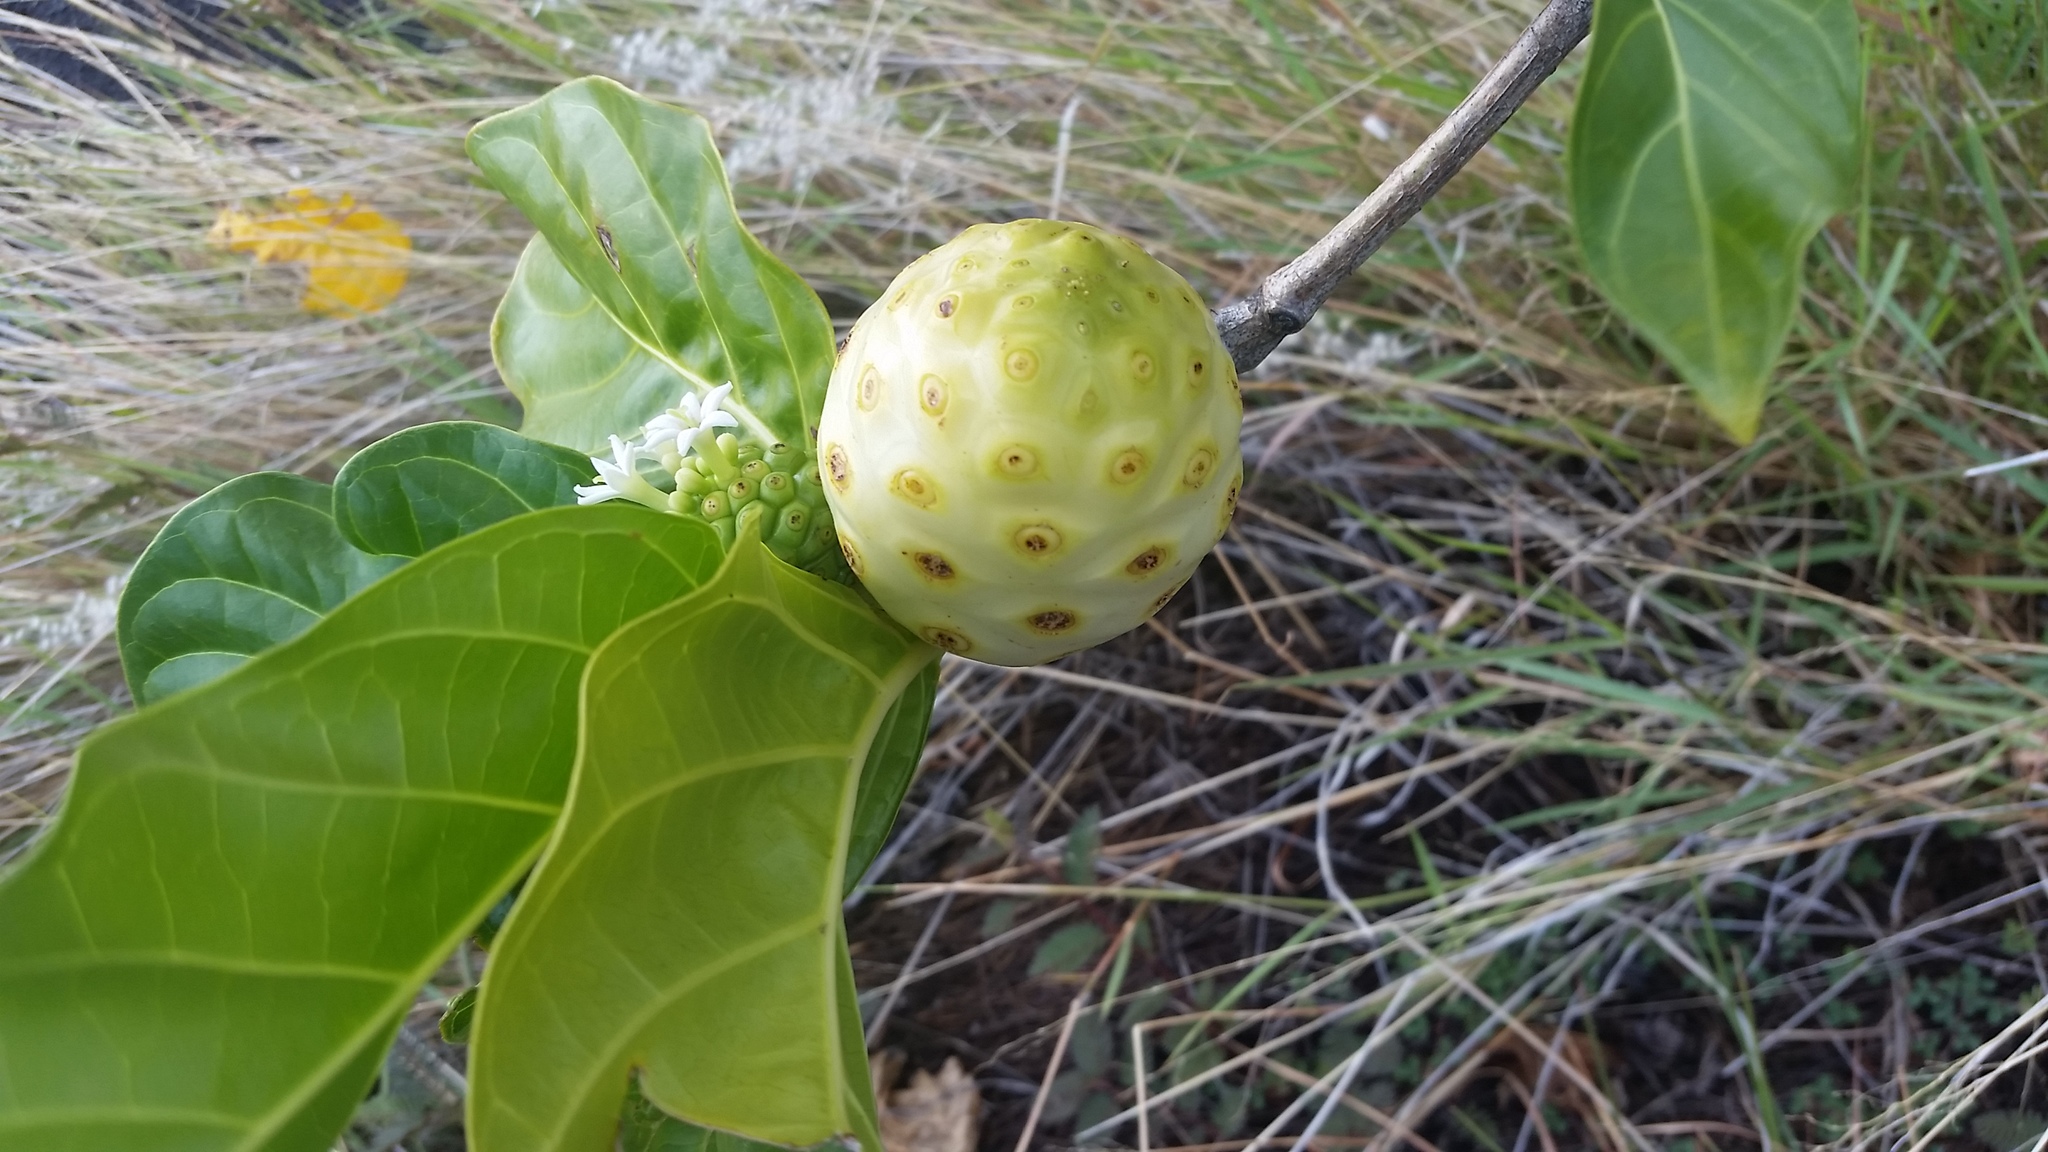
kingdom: Plantae
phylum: Tracheophyta
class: Magnoliopsida
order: Gentianales
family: Rubiaceae
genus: Morinda
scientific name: Morinda citrifolia
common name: Indian-mulberry
